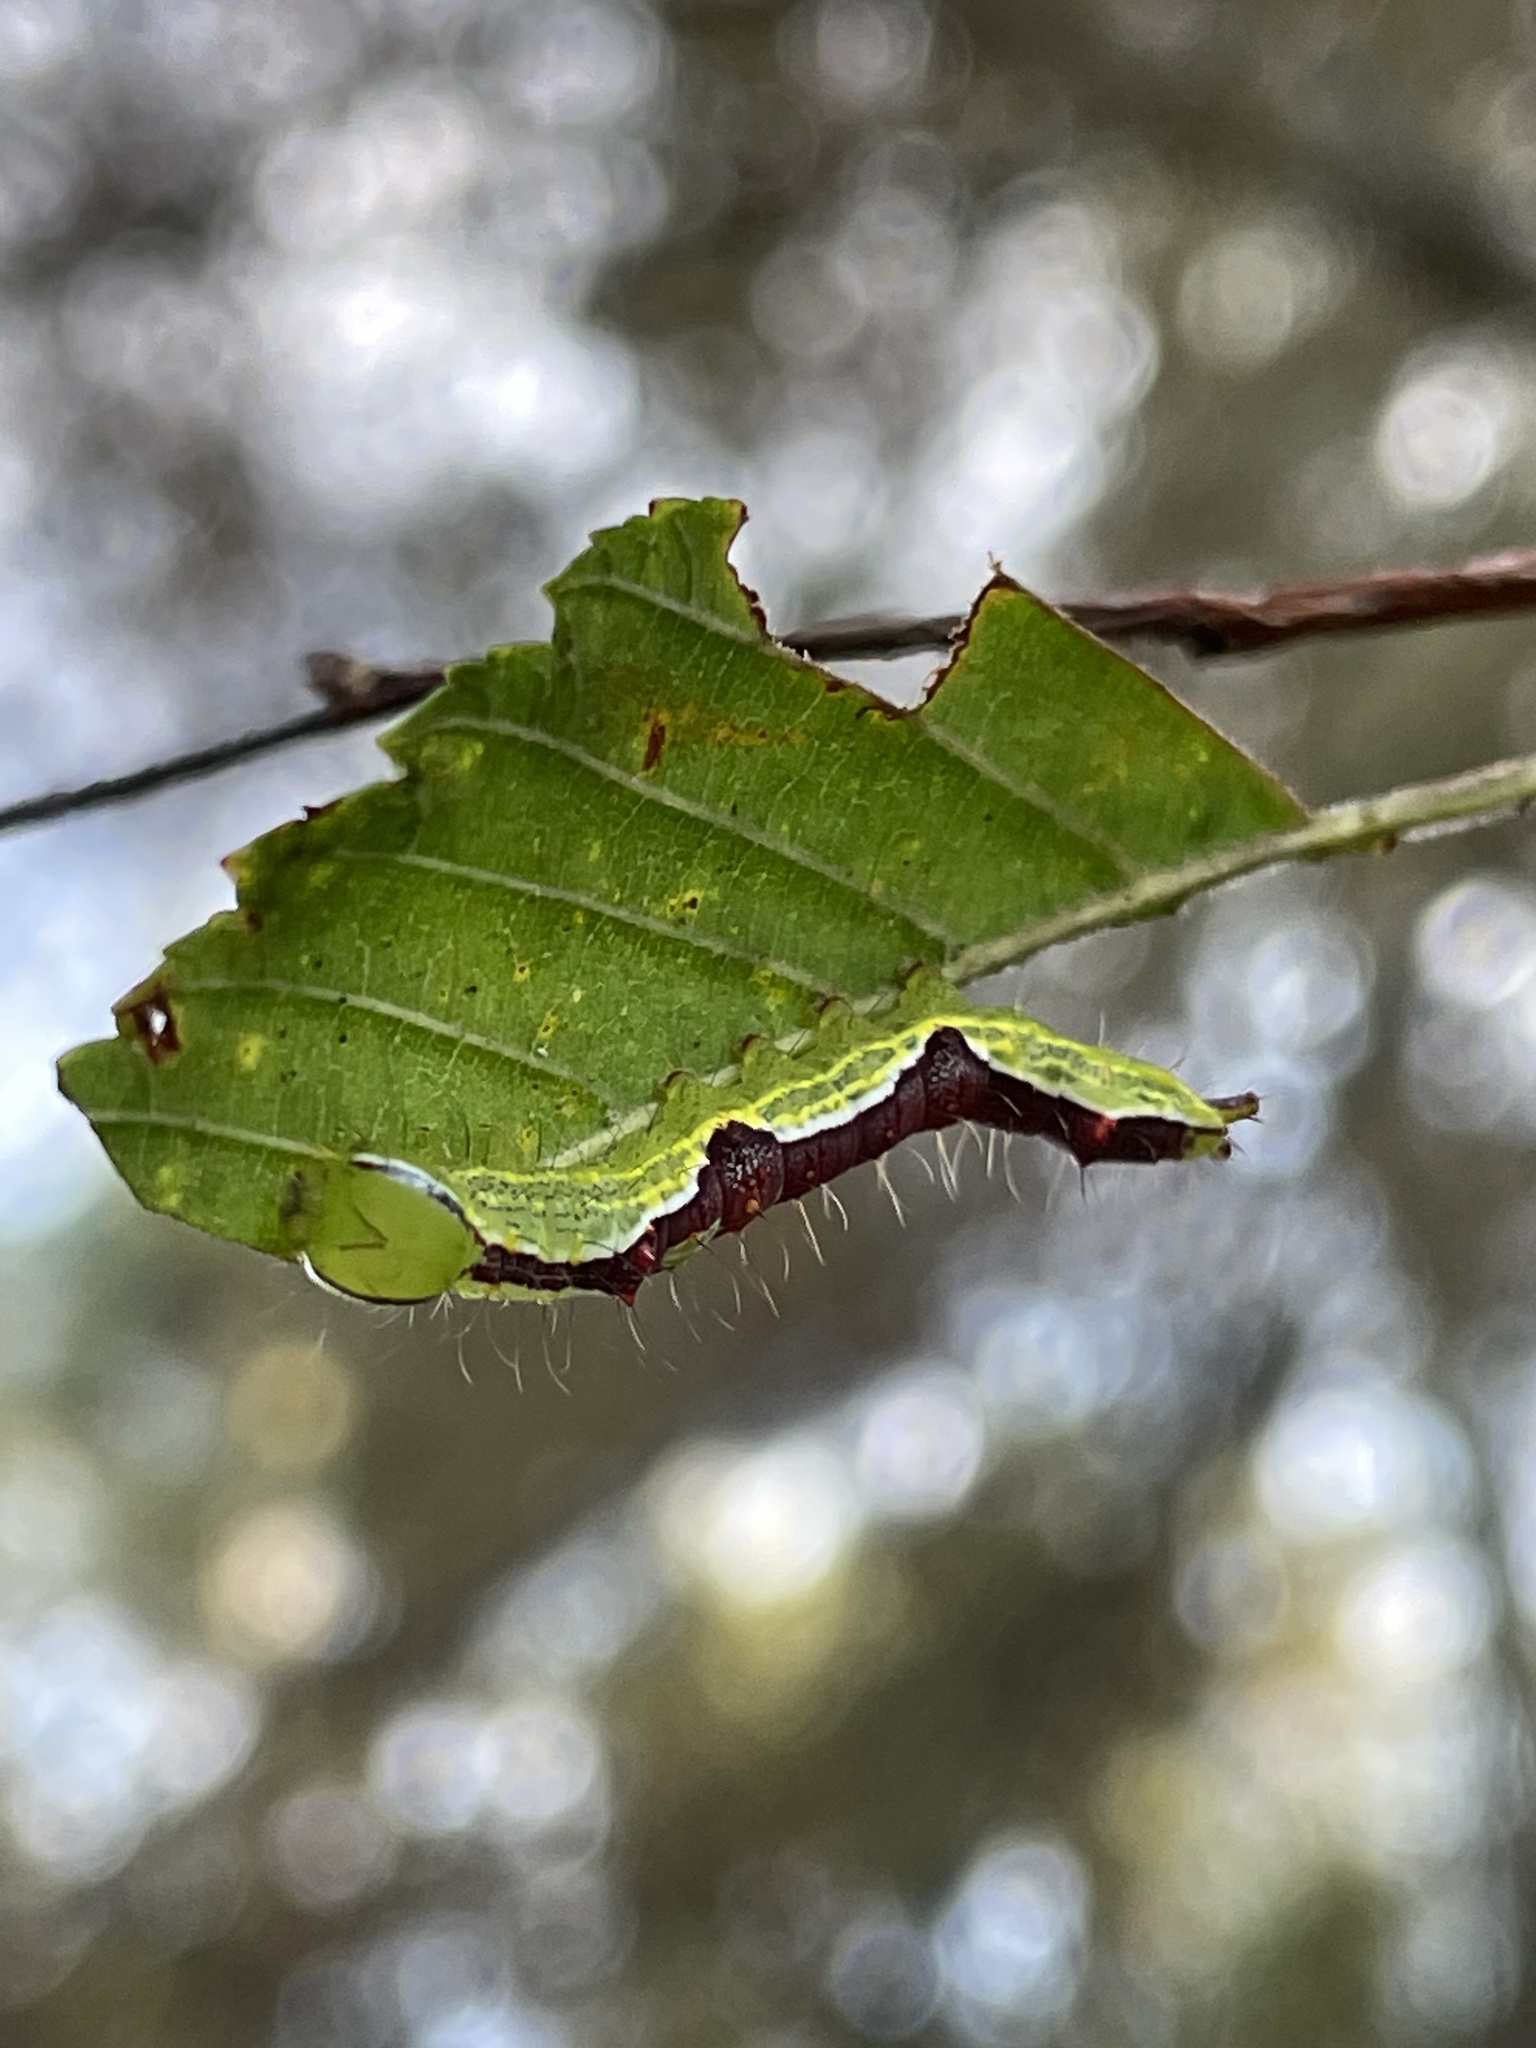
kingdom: Animalia
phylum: Arthropoda
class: Insecta
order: Lepidoptera
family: Notodontidae
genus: Lochmaeus
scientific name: Lochmaeus bilineata
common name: Double-lined prominent
